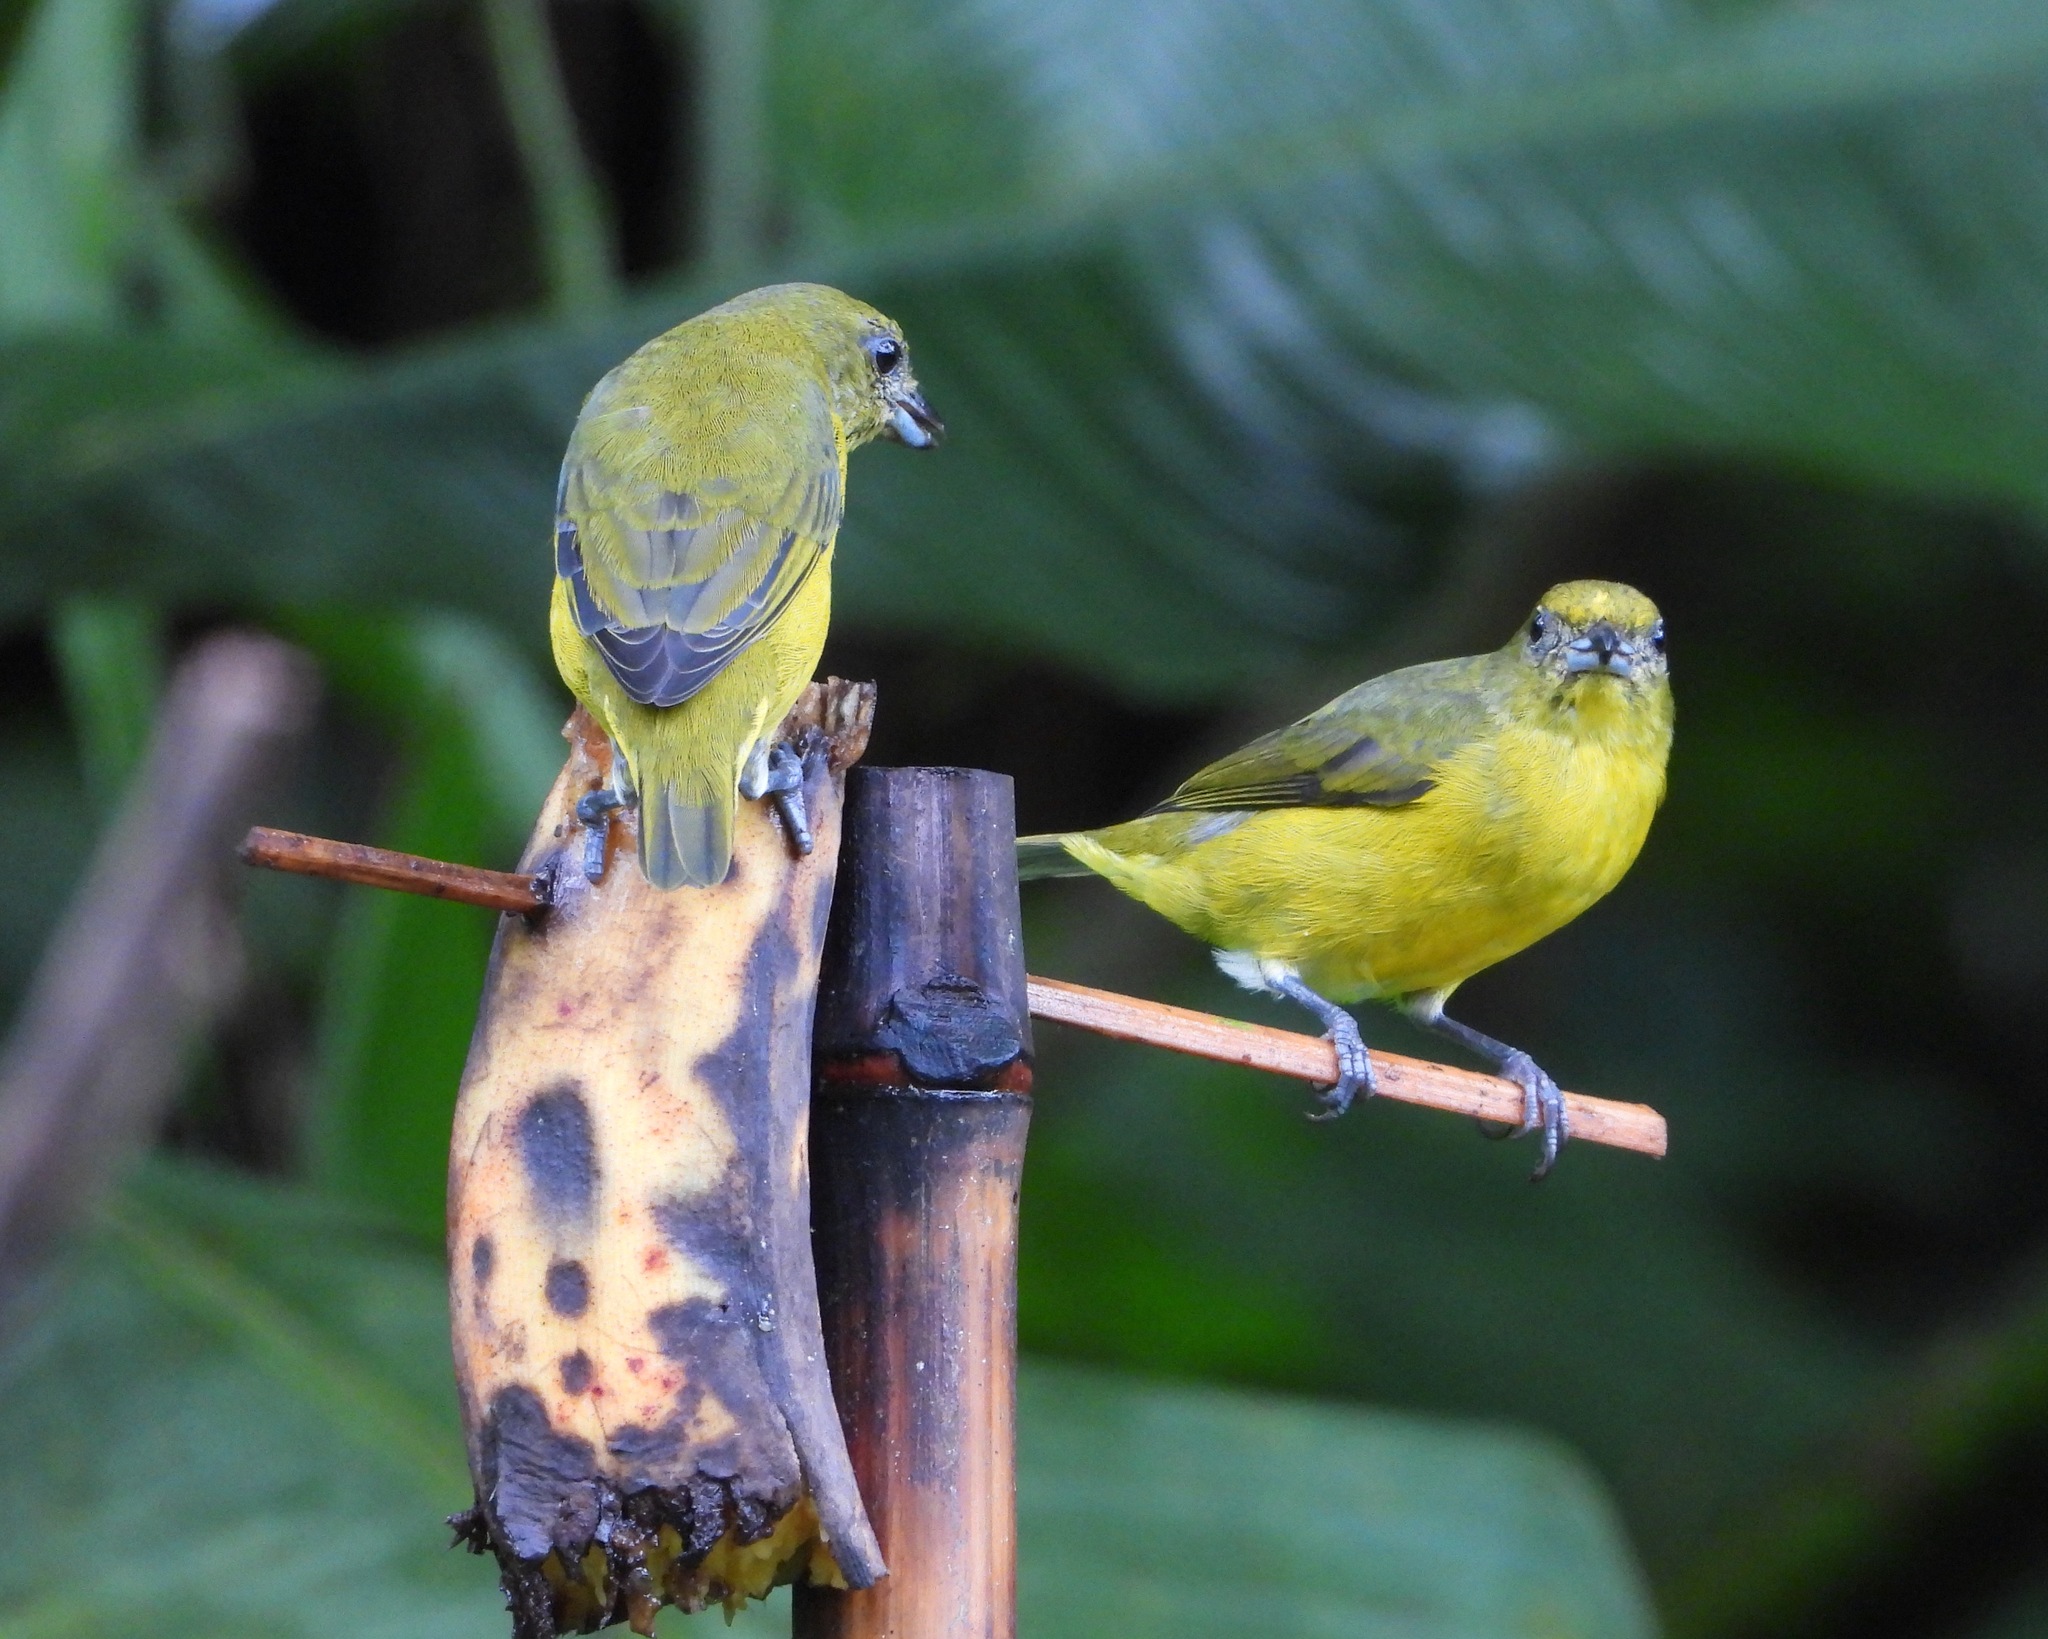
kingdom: Animalia
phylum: Chordata
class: Aves
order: Passeriformes
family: Fringillidae
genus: Euphonia
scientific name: Euphonia hirundinacea
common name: Yellow-throated euphonia
